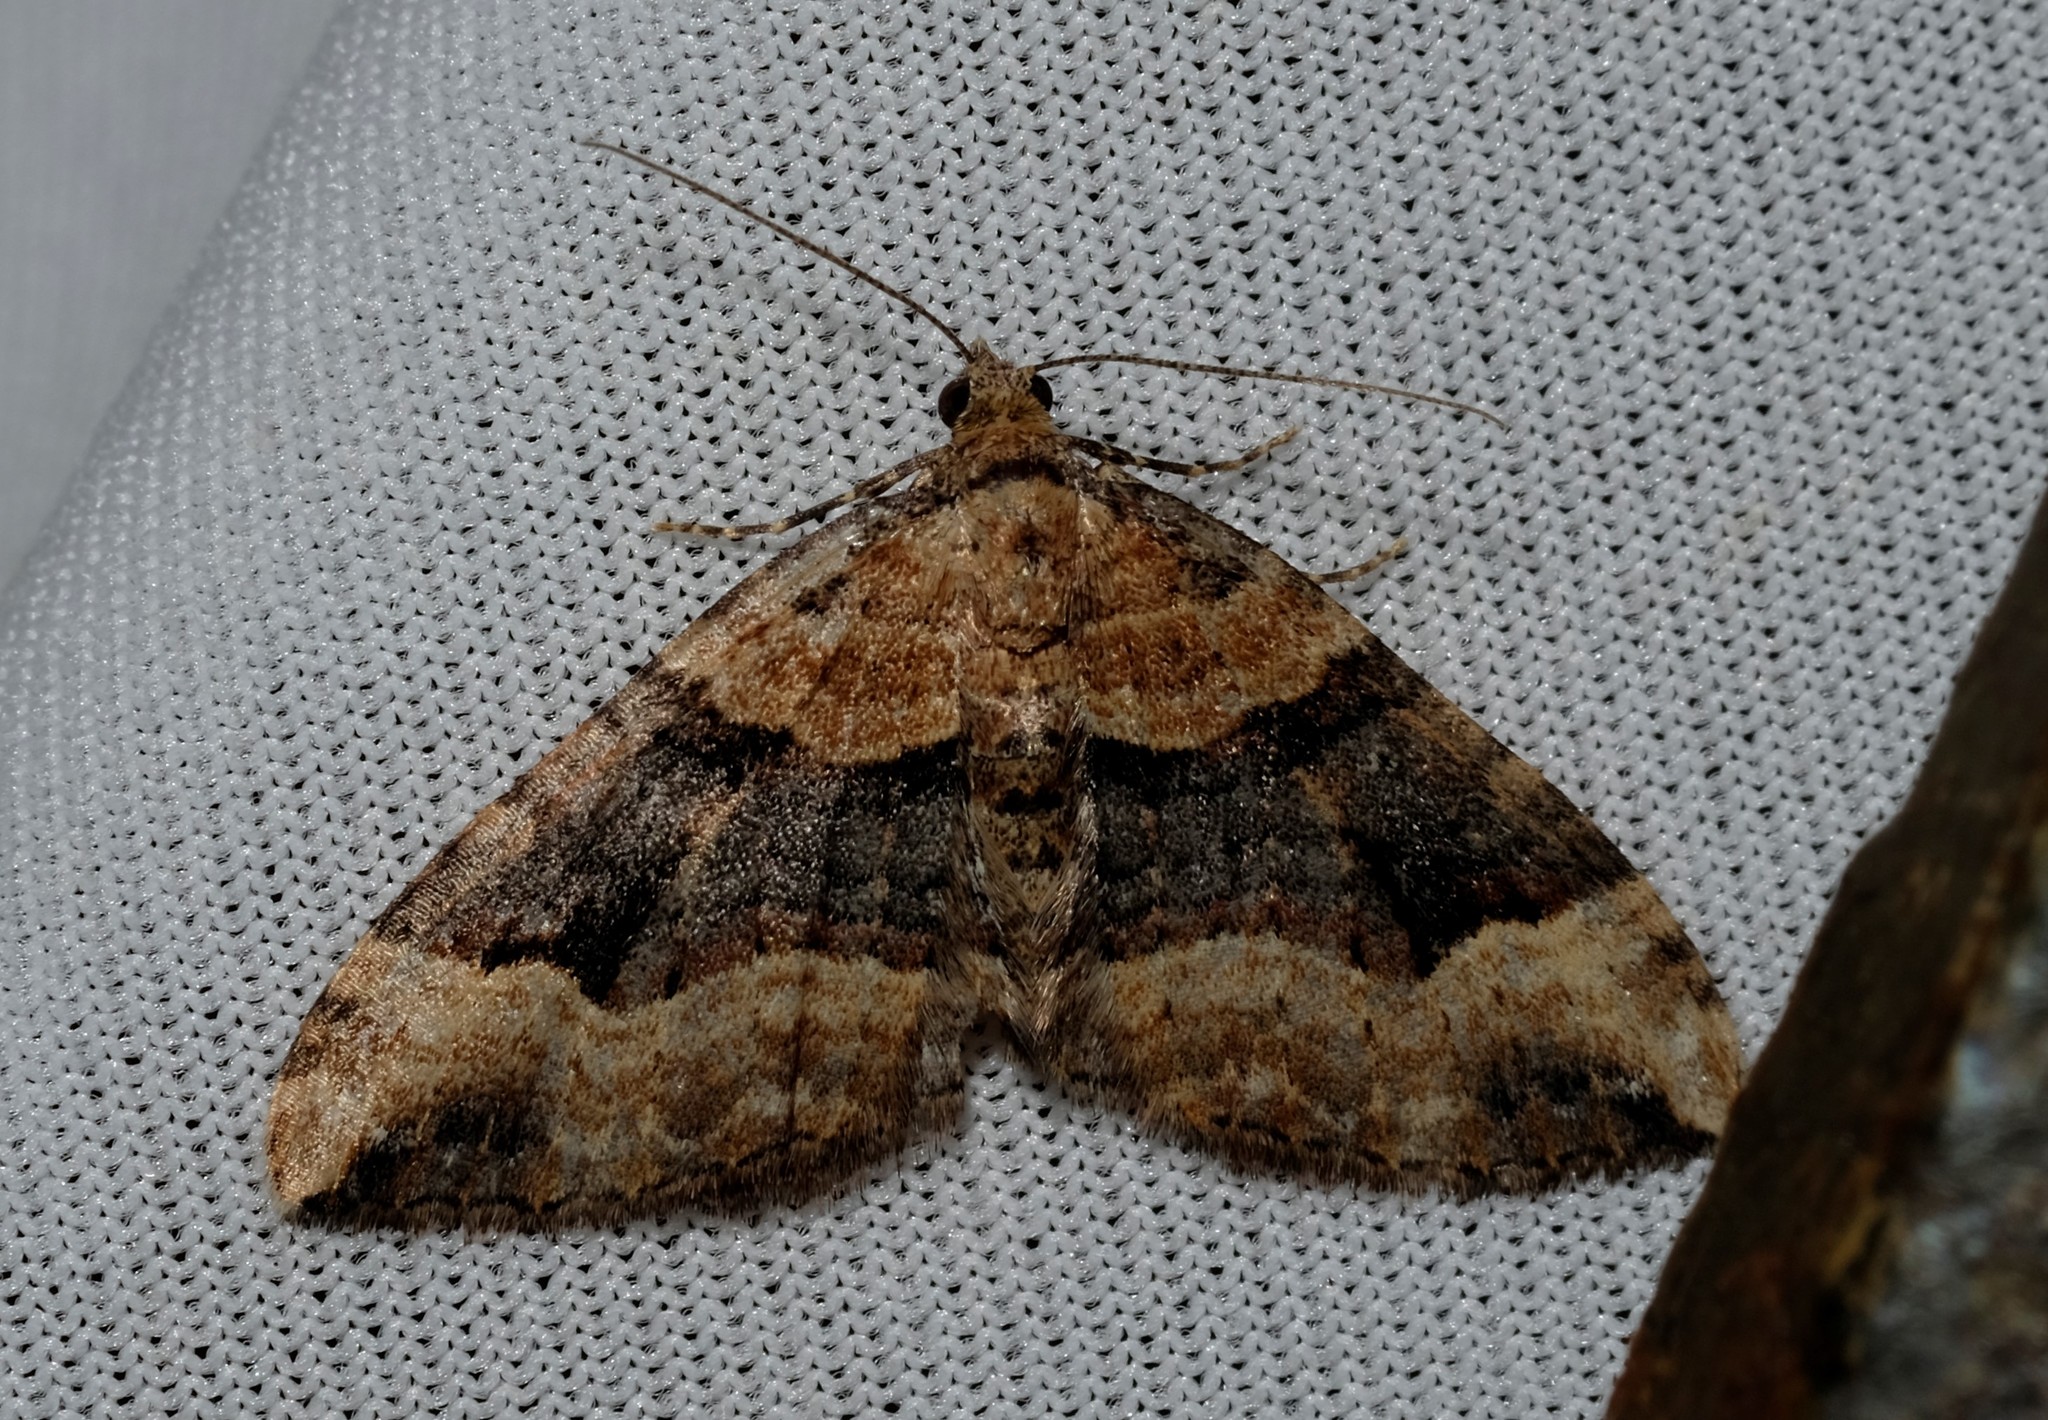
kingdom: Animalia
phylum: Arthropoda
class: Insecta
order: Lepidoptera
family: Geometridae
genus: Epyaxa
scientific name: Epyaxa subidaria
